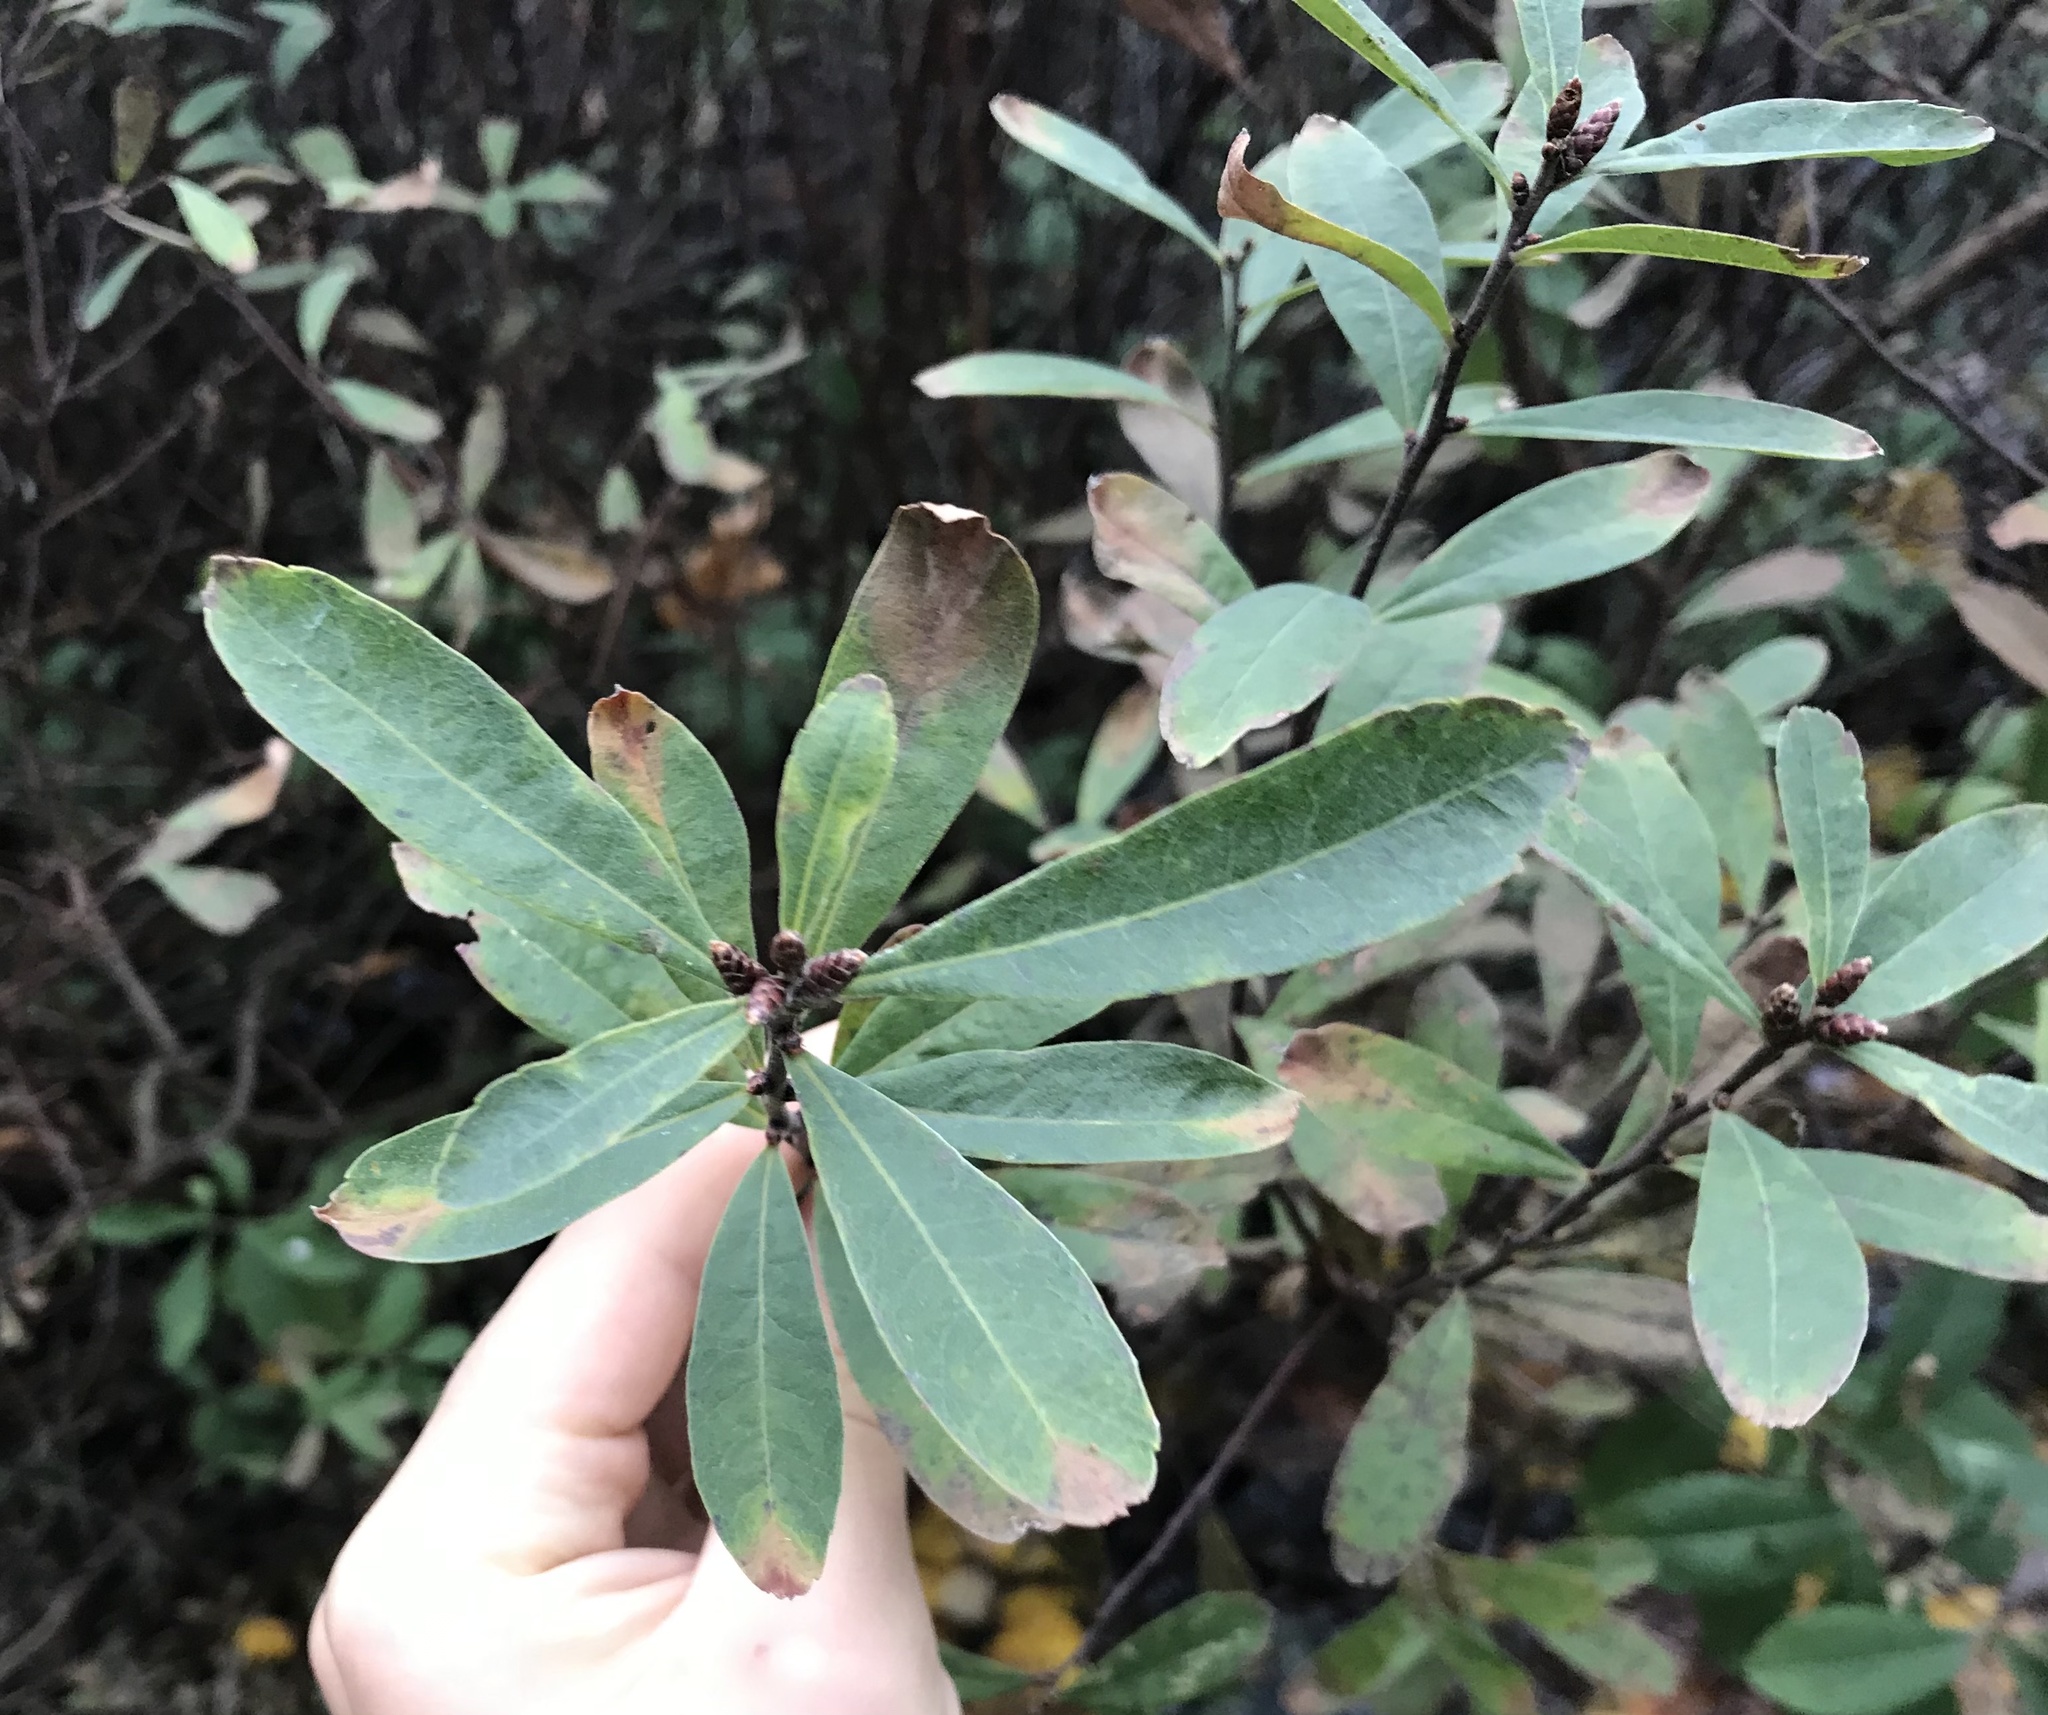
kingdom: Plantae
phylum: Tracheophyta
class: Magnoliopsida
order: Fagales
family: Myricaceae
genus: Myrica
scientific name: Myrica gale
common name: Sweet gale
